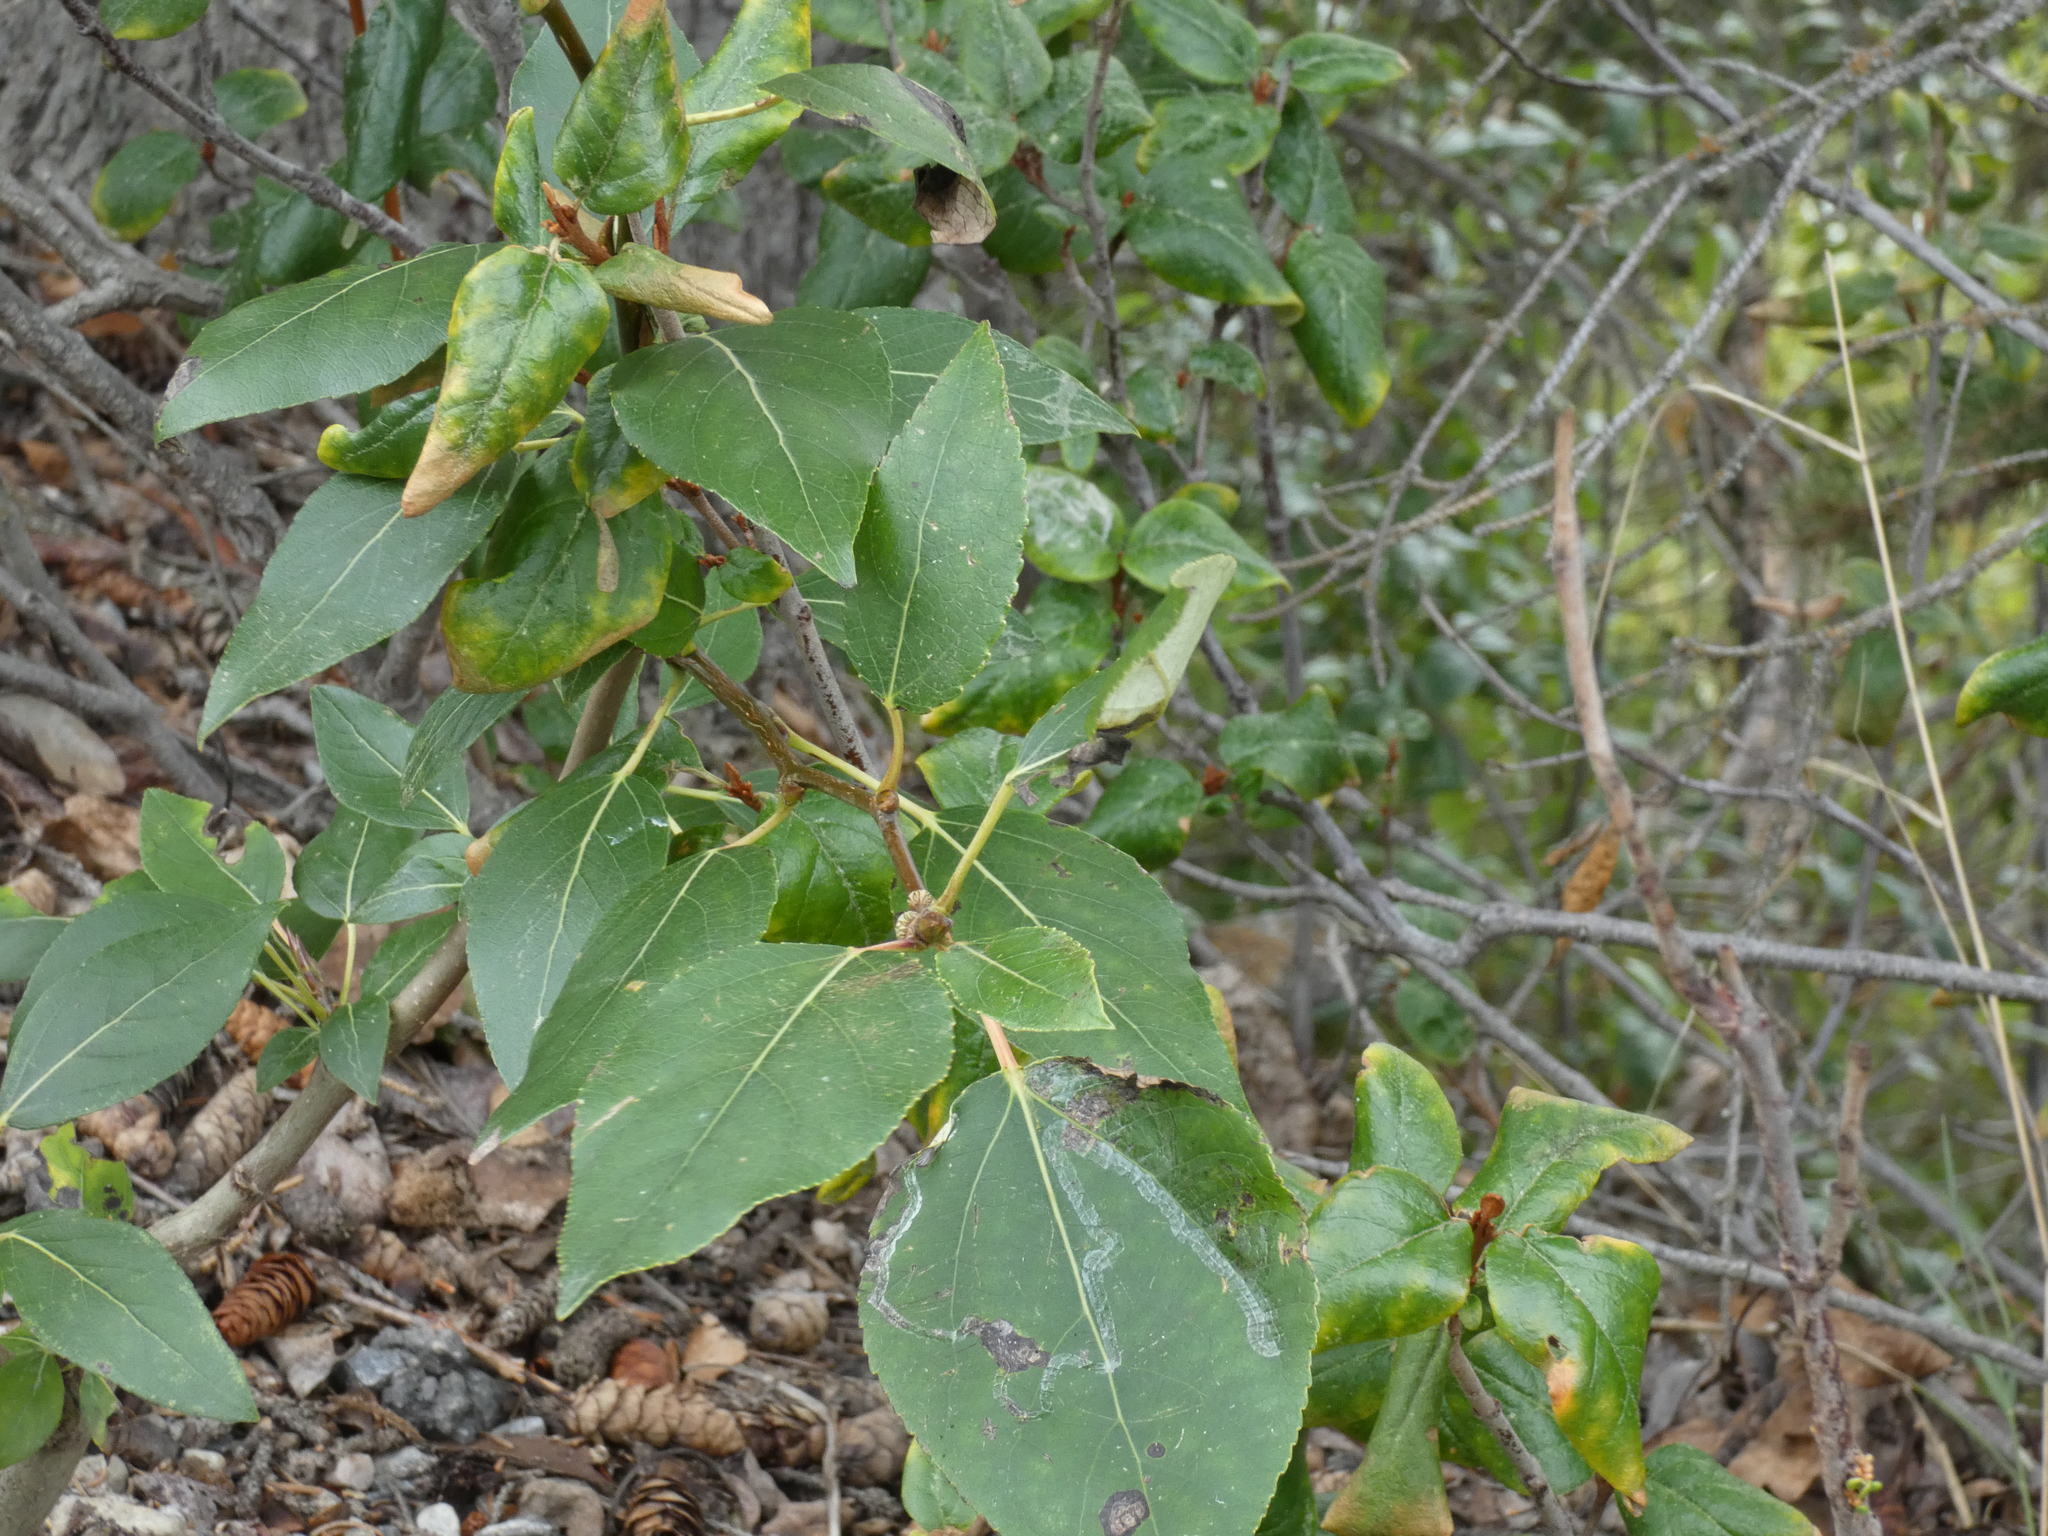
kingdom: Plantae
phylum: Tracheophyta
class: Magnoliopsida
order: Malpighiales
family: Salicaceae
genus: Populus
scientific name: Populus balsamifera
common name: Balsam poplar
